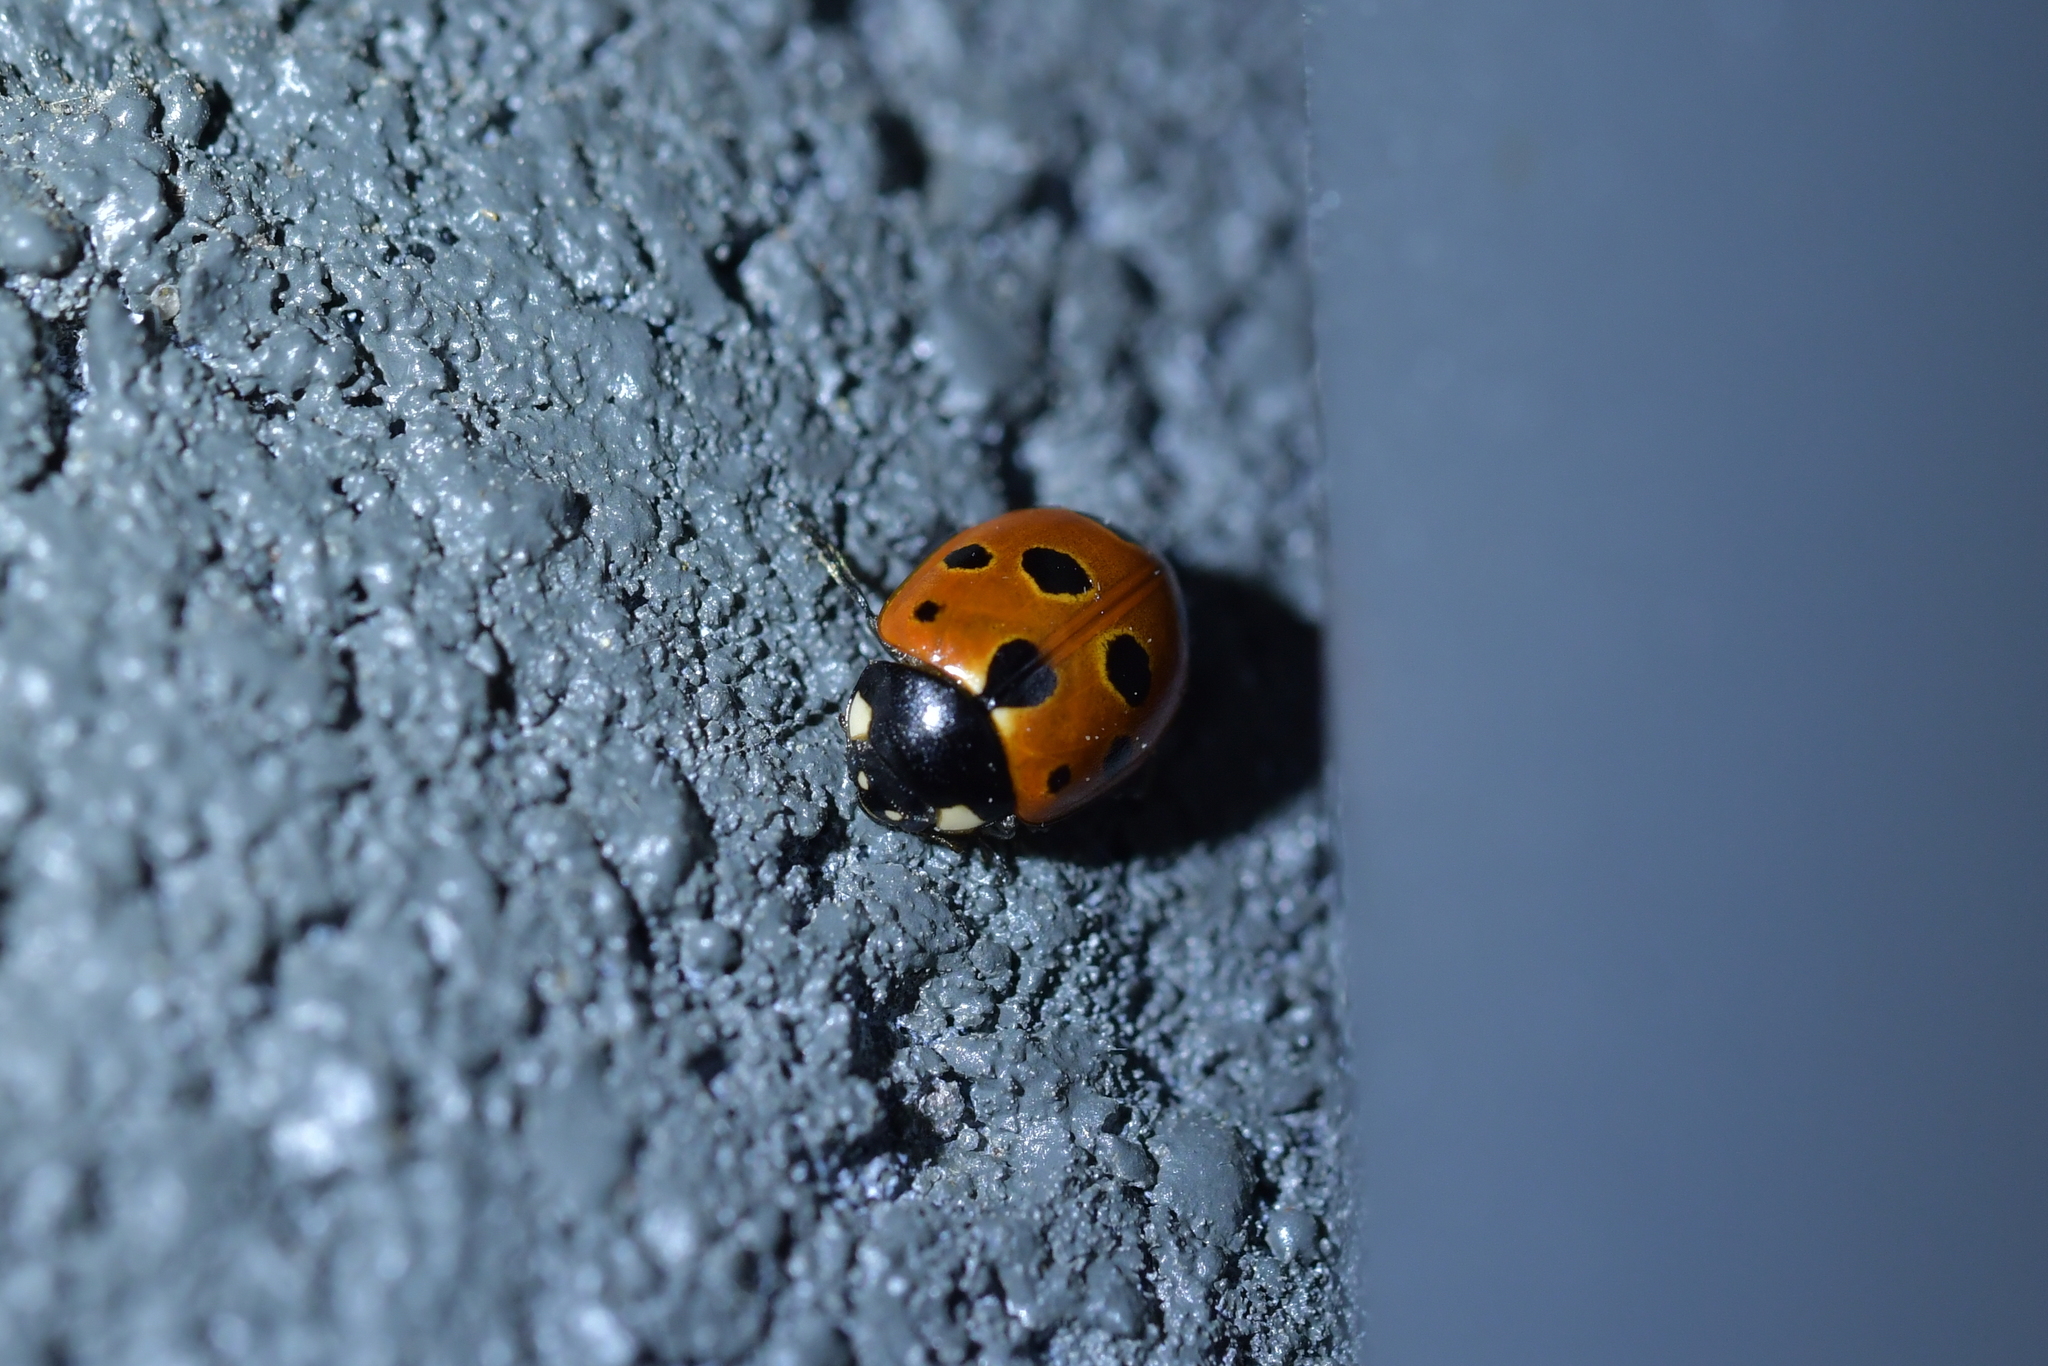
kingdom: Animalia
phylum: Arthropoda
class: Insecta
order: Coleoptera
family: Coccinellidae
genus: Coccinella
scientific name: Coccinella undecimpunctata
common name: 11-spot ladybird
